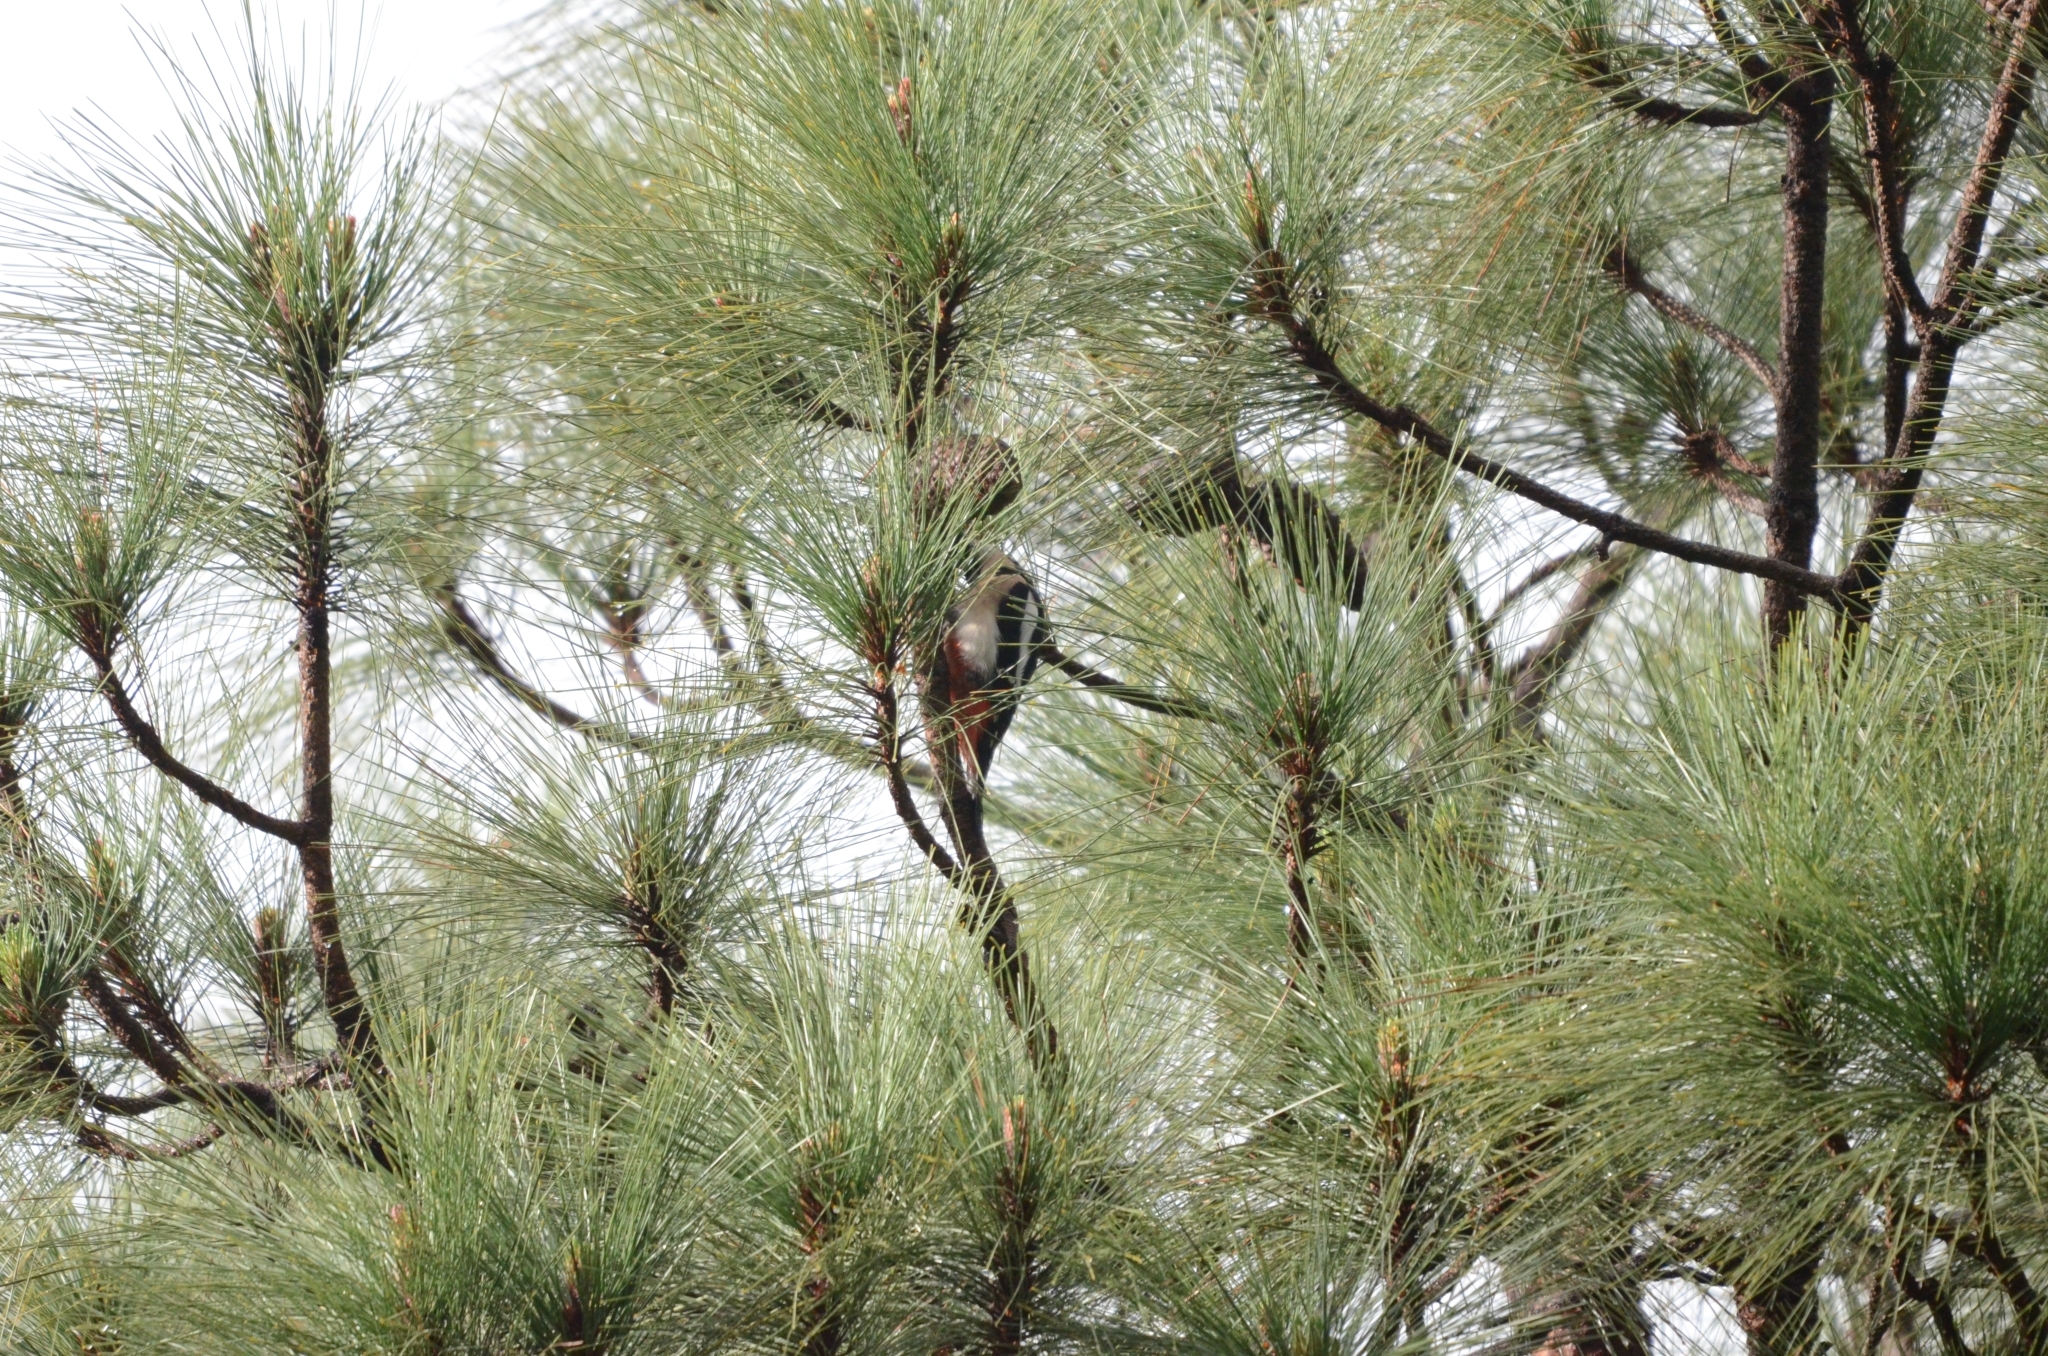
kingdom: Animalia
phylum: Chordata
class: Aves
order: Piciformes
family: Picidae
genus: Dendrocopos
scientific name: Dendrocopos major
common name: Great spotted woodpecker
